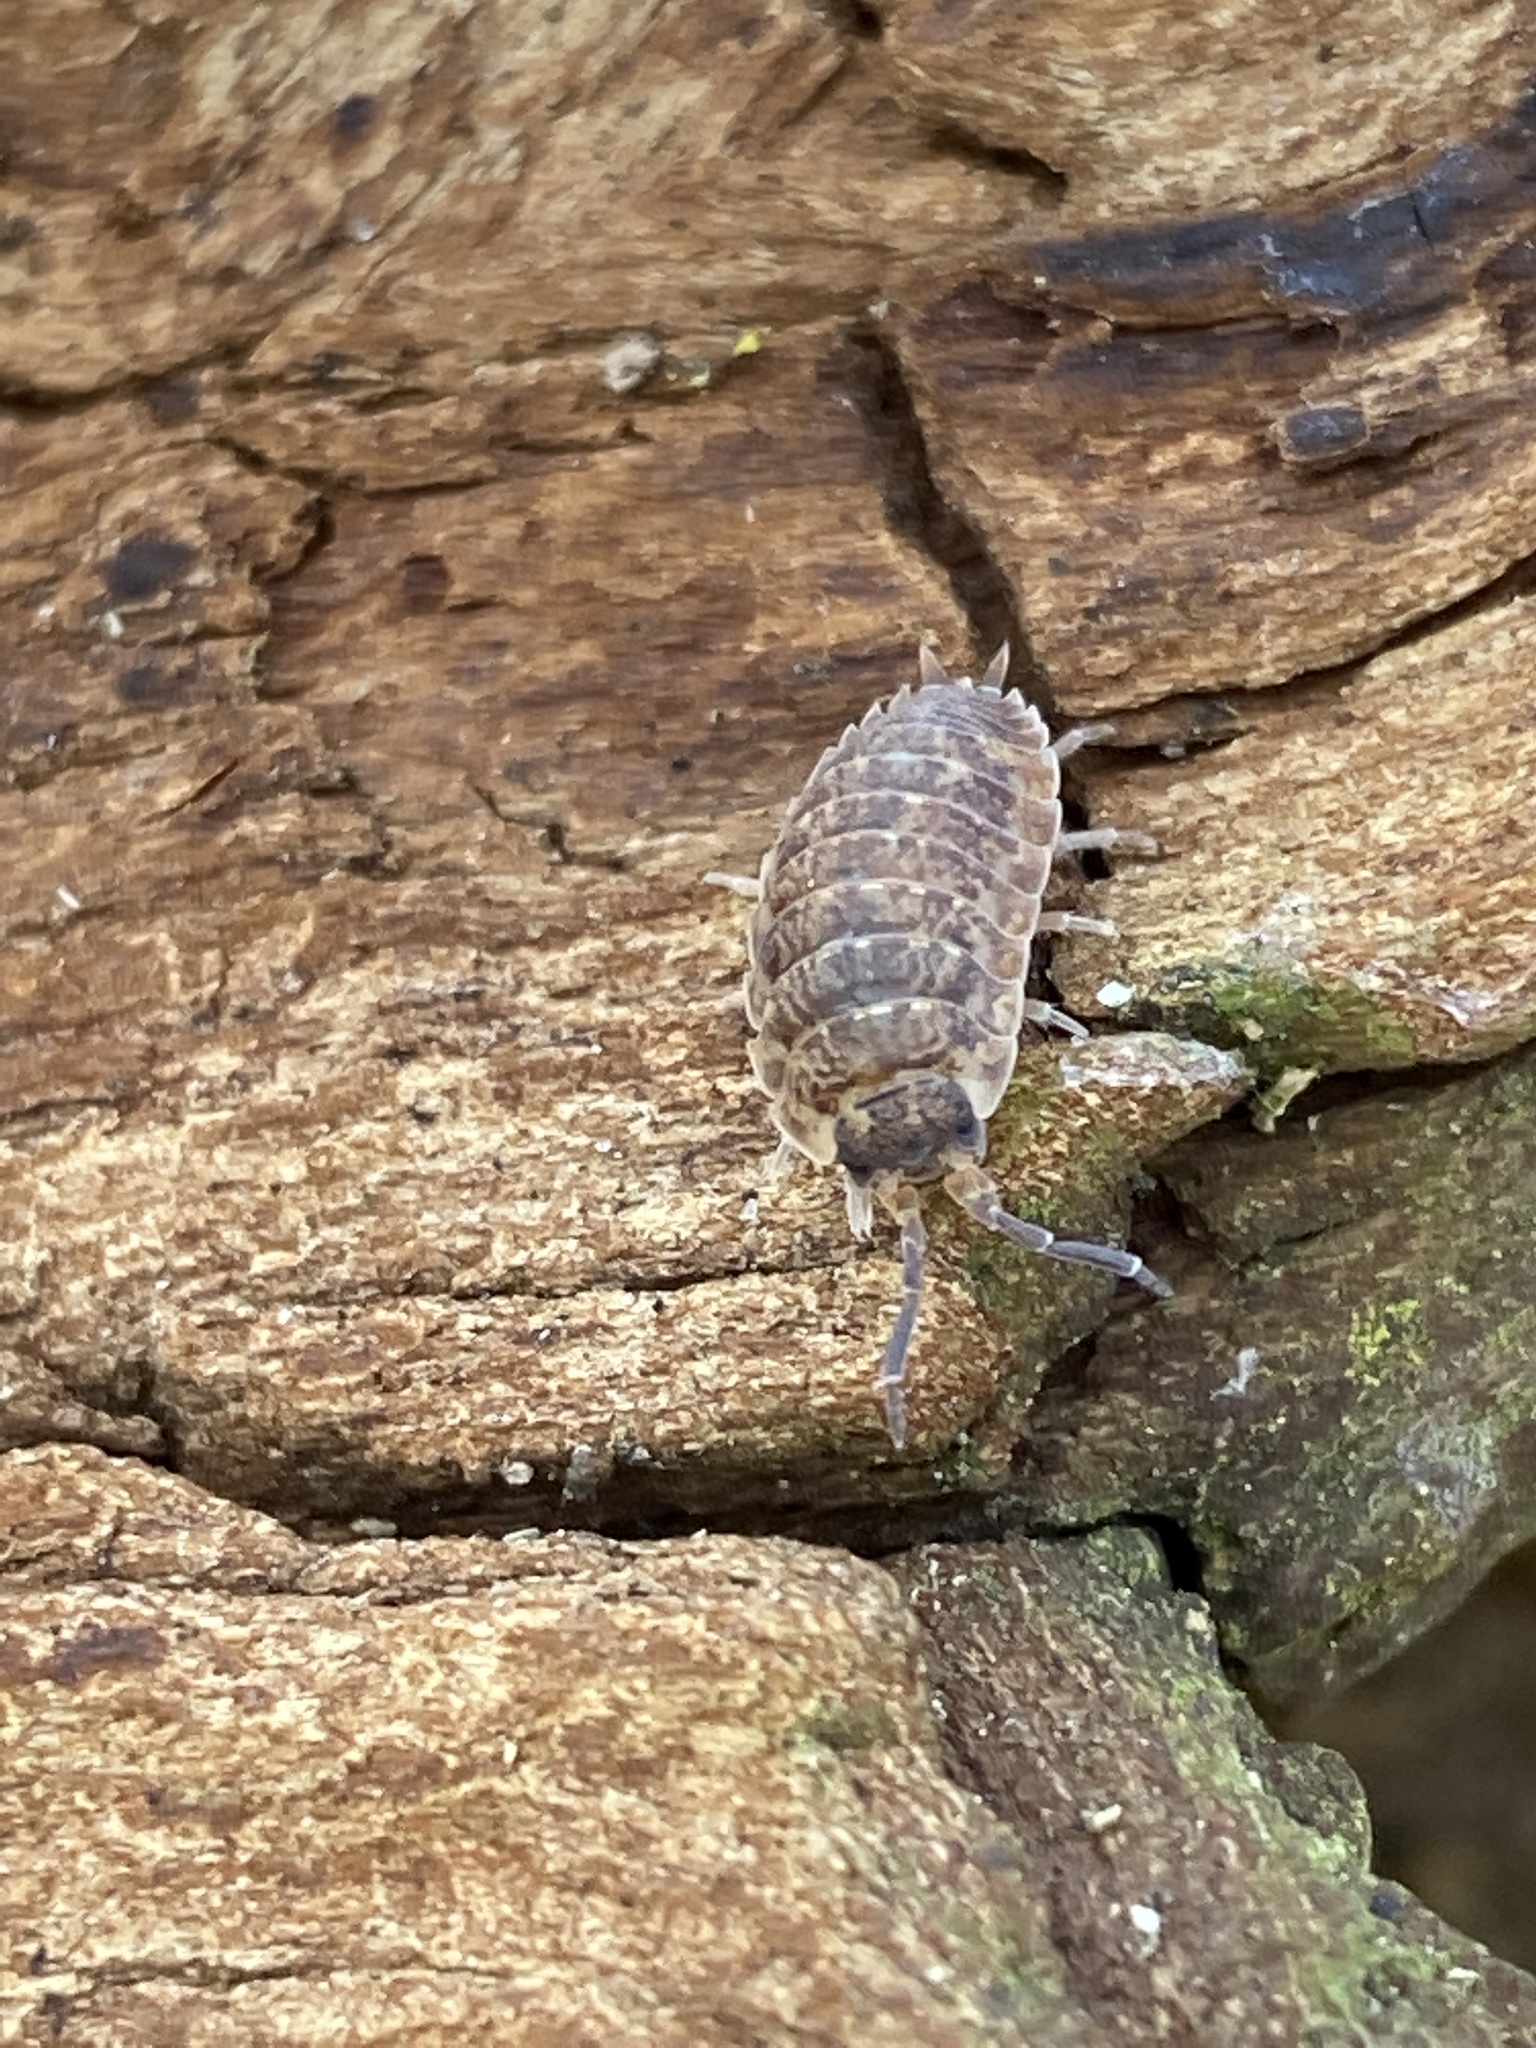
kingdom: Animalia
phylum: Arthropoda
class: Malacostraca
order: Isopoda
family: Porcellionidae
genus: Porcellio
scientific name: Porcellio scaber
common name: Common rough woodlouse
